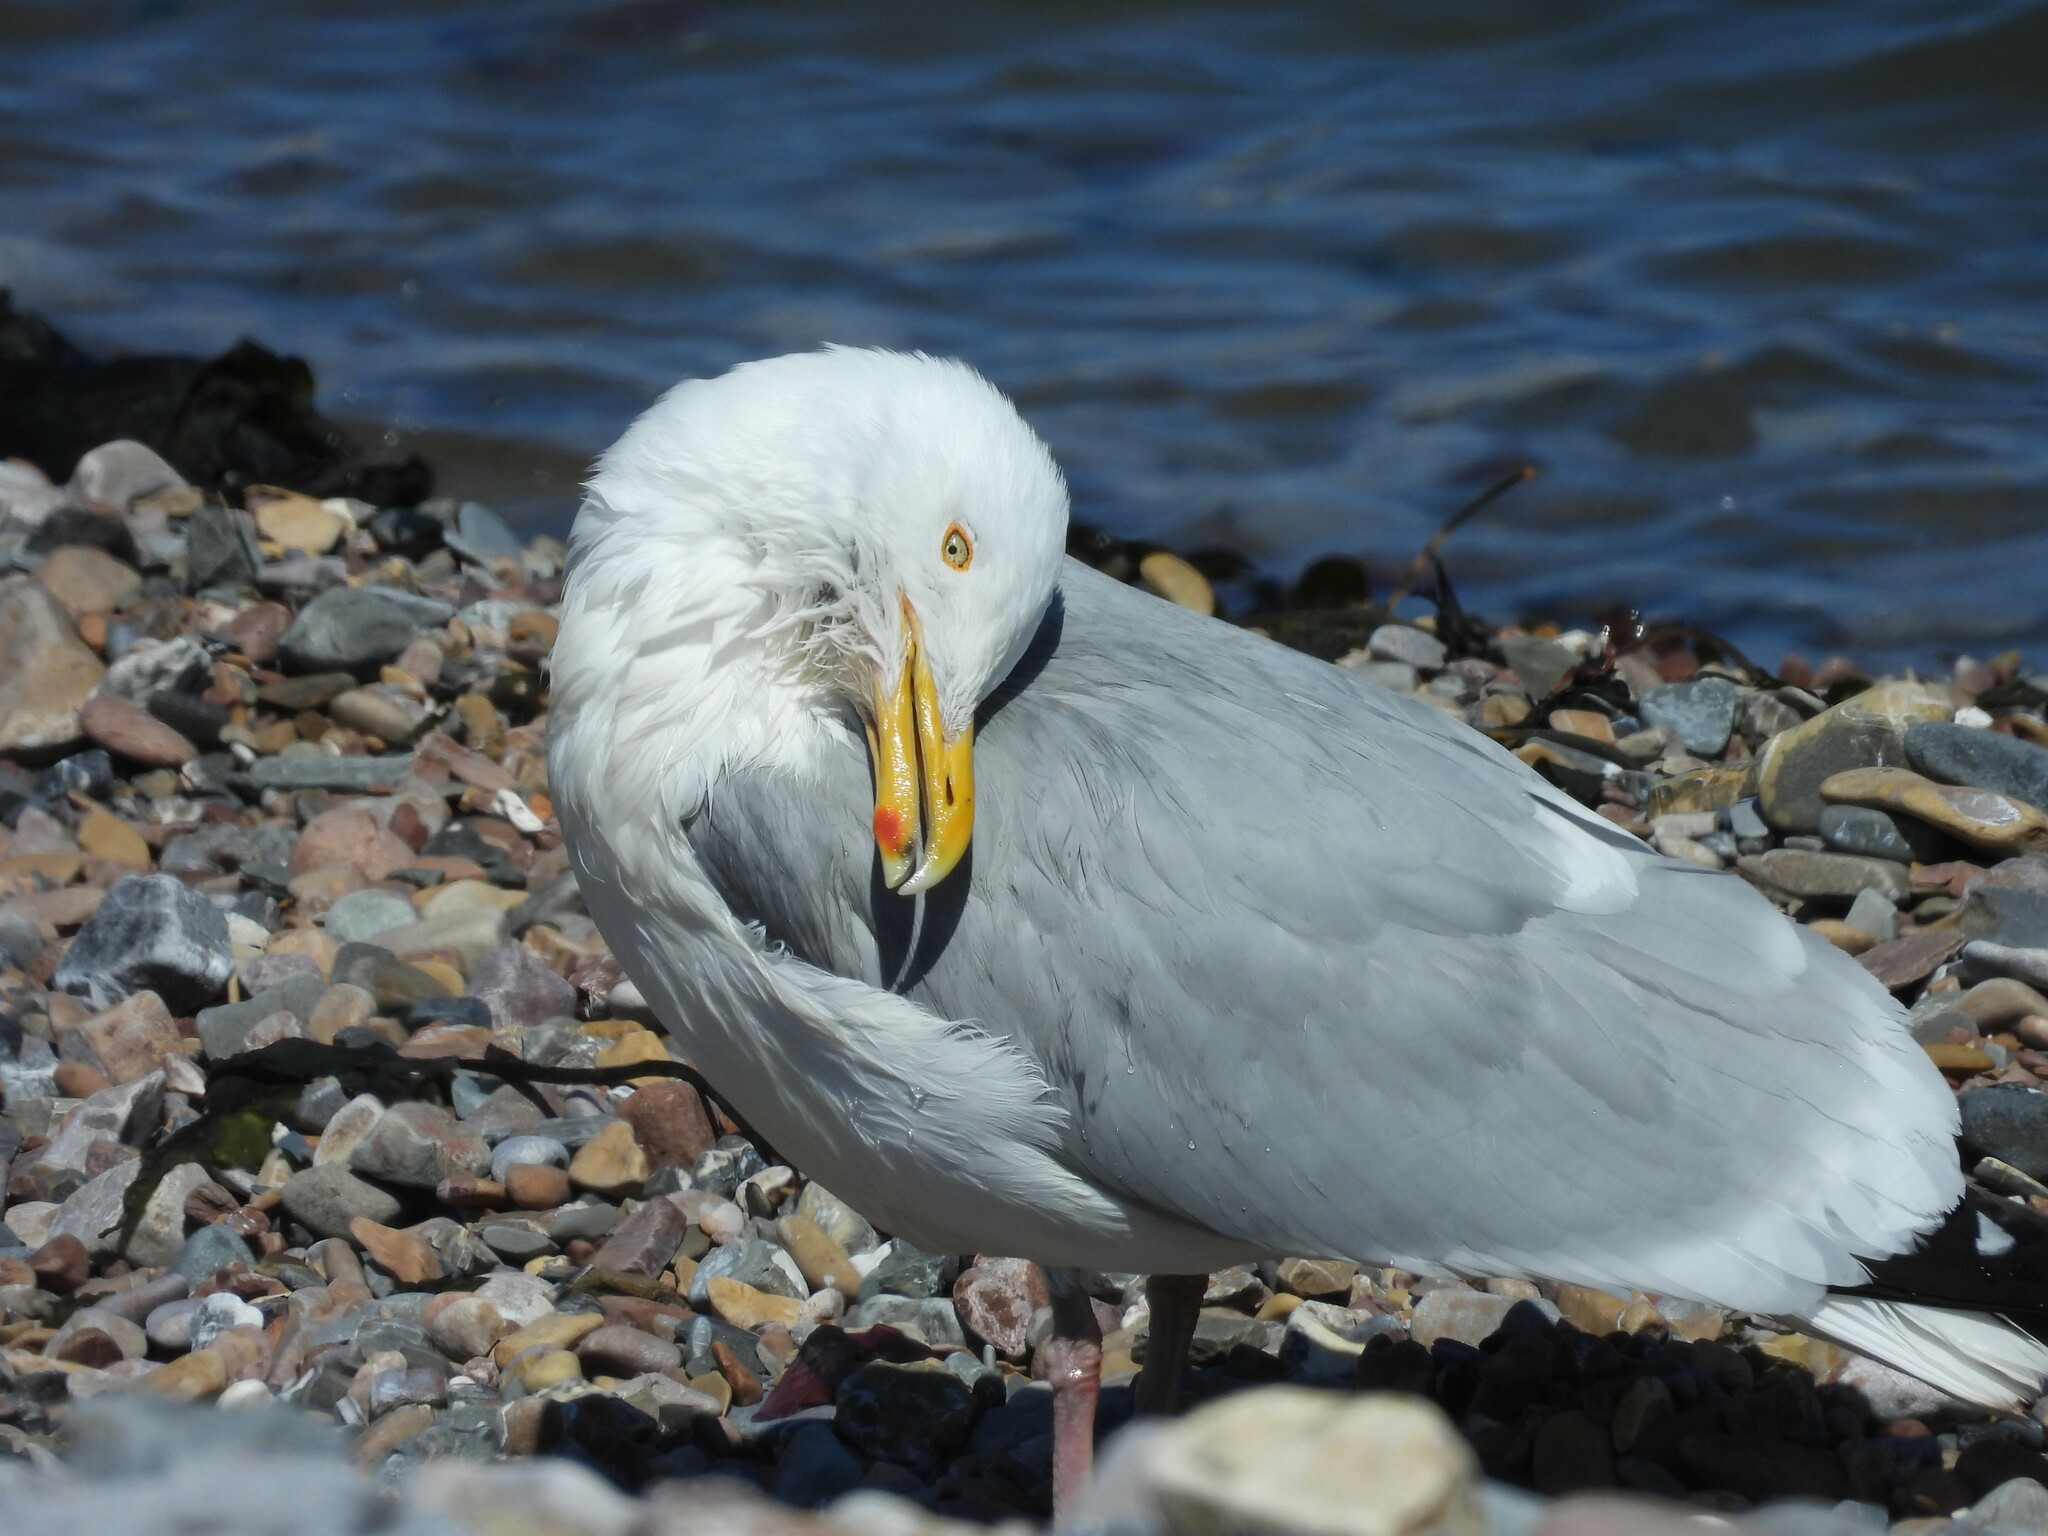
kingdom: Animalia
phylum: Chordata
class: Aves
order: Charadriiformes
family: Laridae
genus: Larus
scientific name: Larus argentatus
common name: Herring gull
